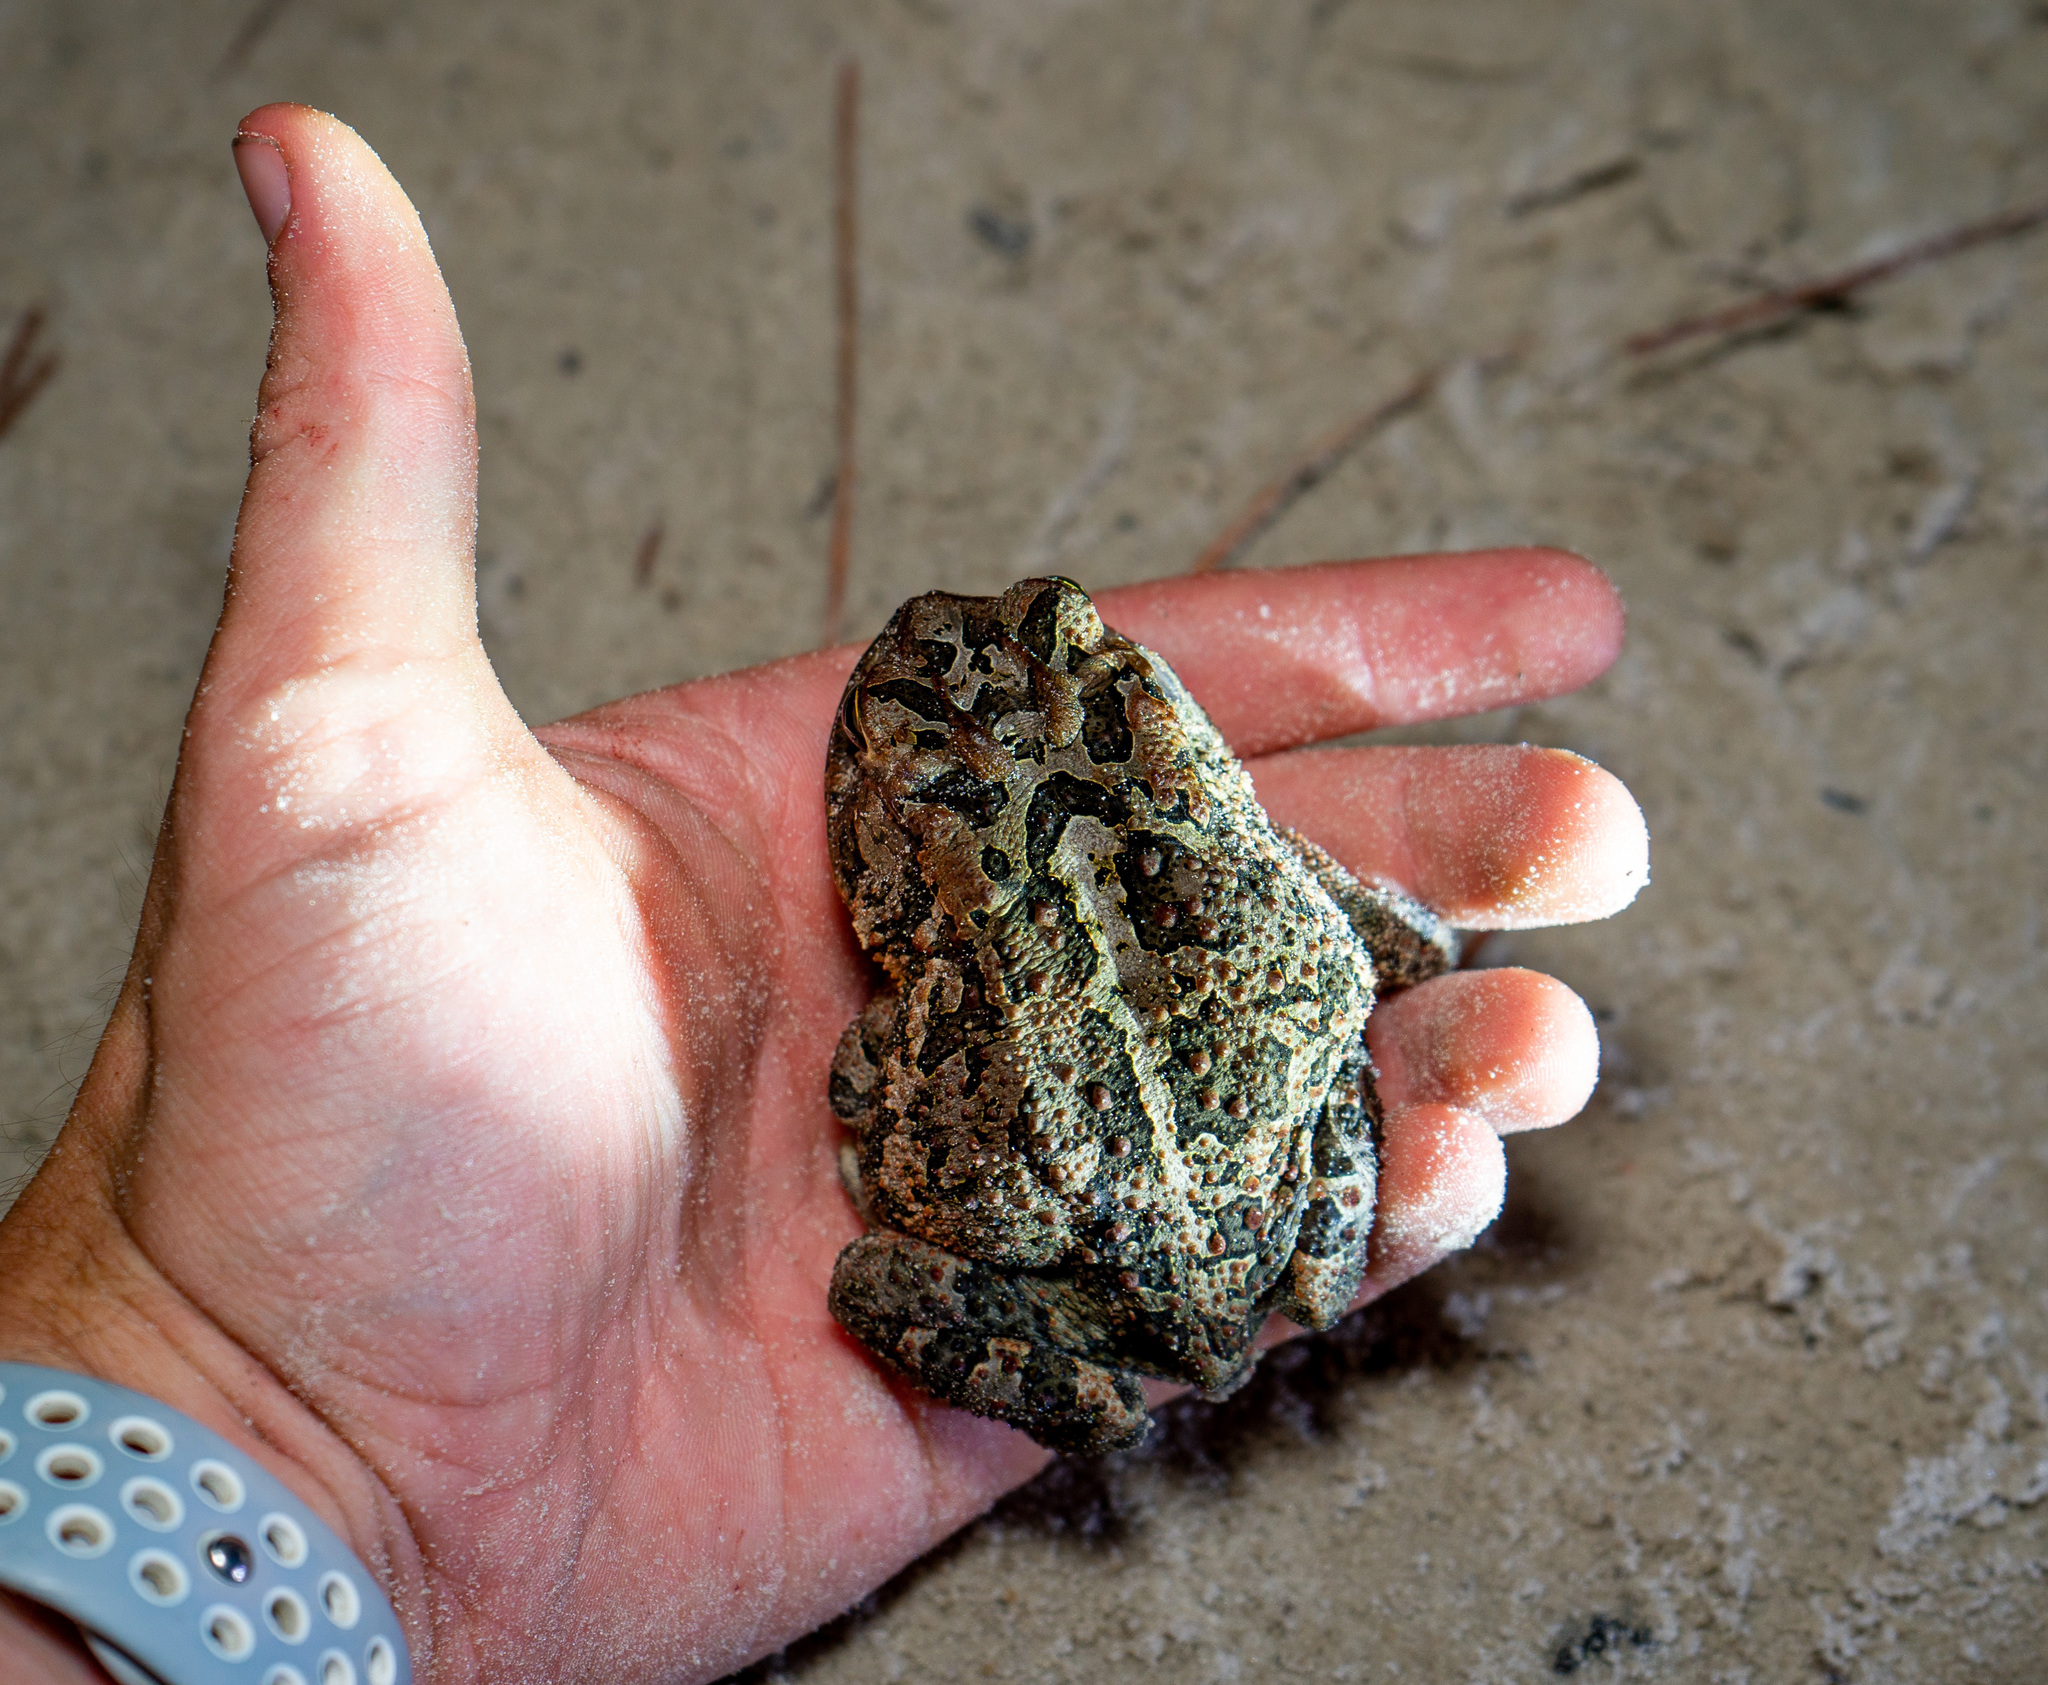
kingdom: Animalia
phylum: Chordata
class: Amphibia
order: Anura
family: Bufonidae
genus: Anaxyrus
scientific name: Anaxyrus terrestris
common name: Southern toad
